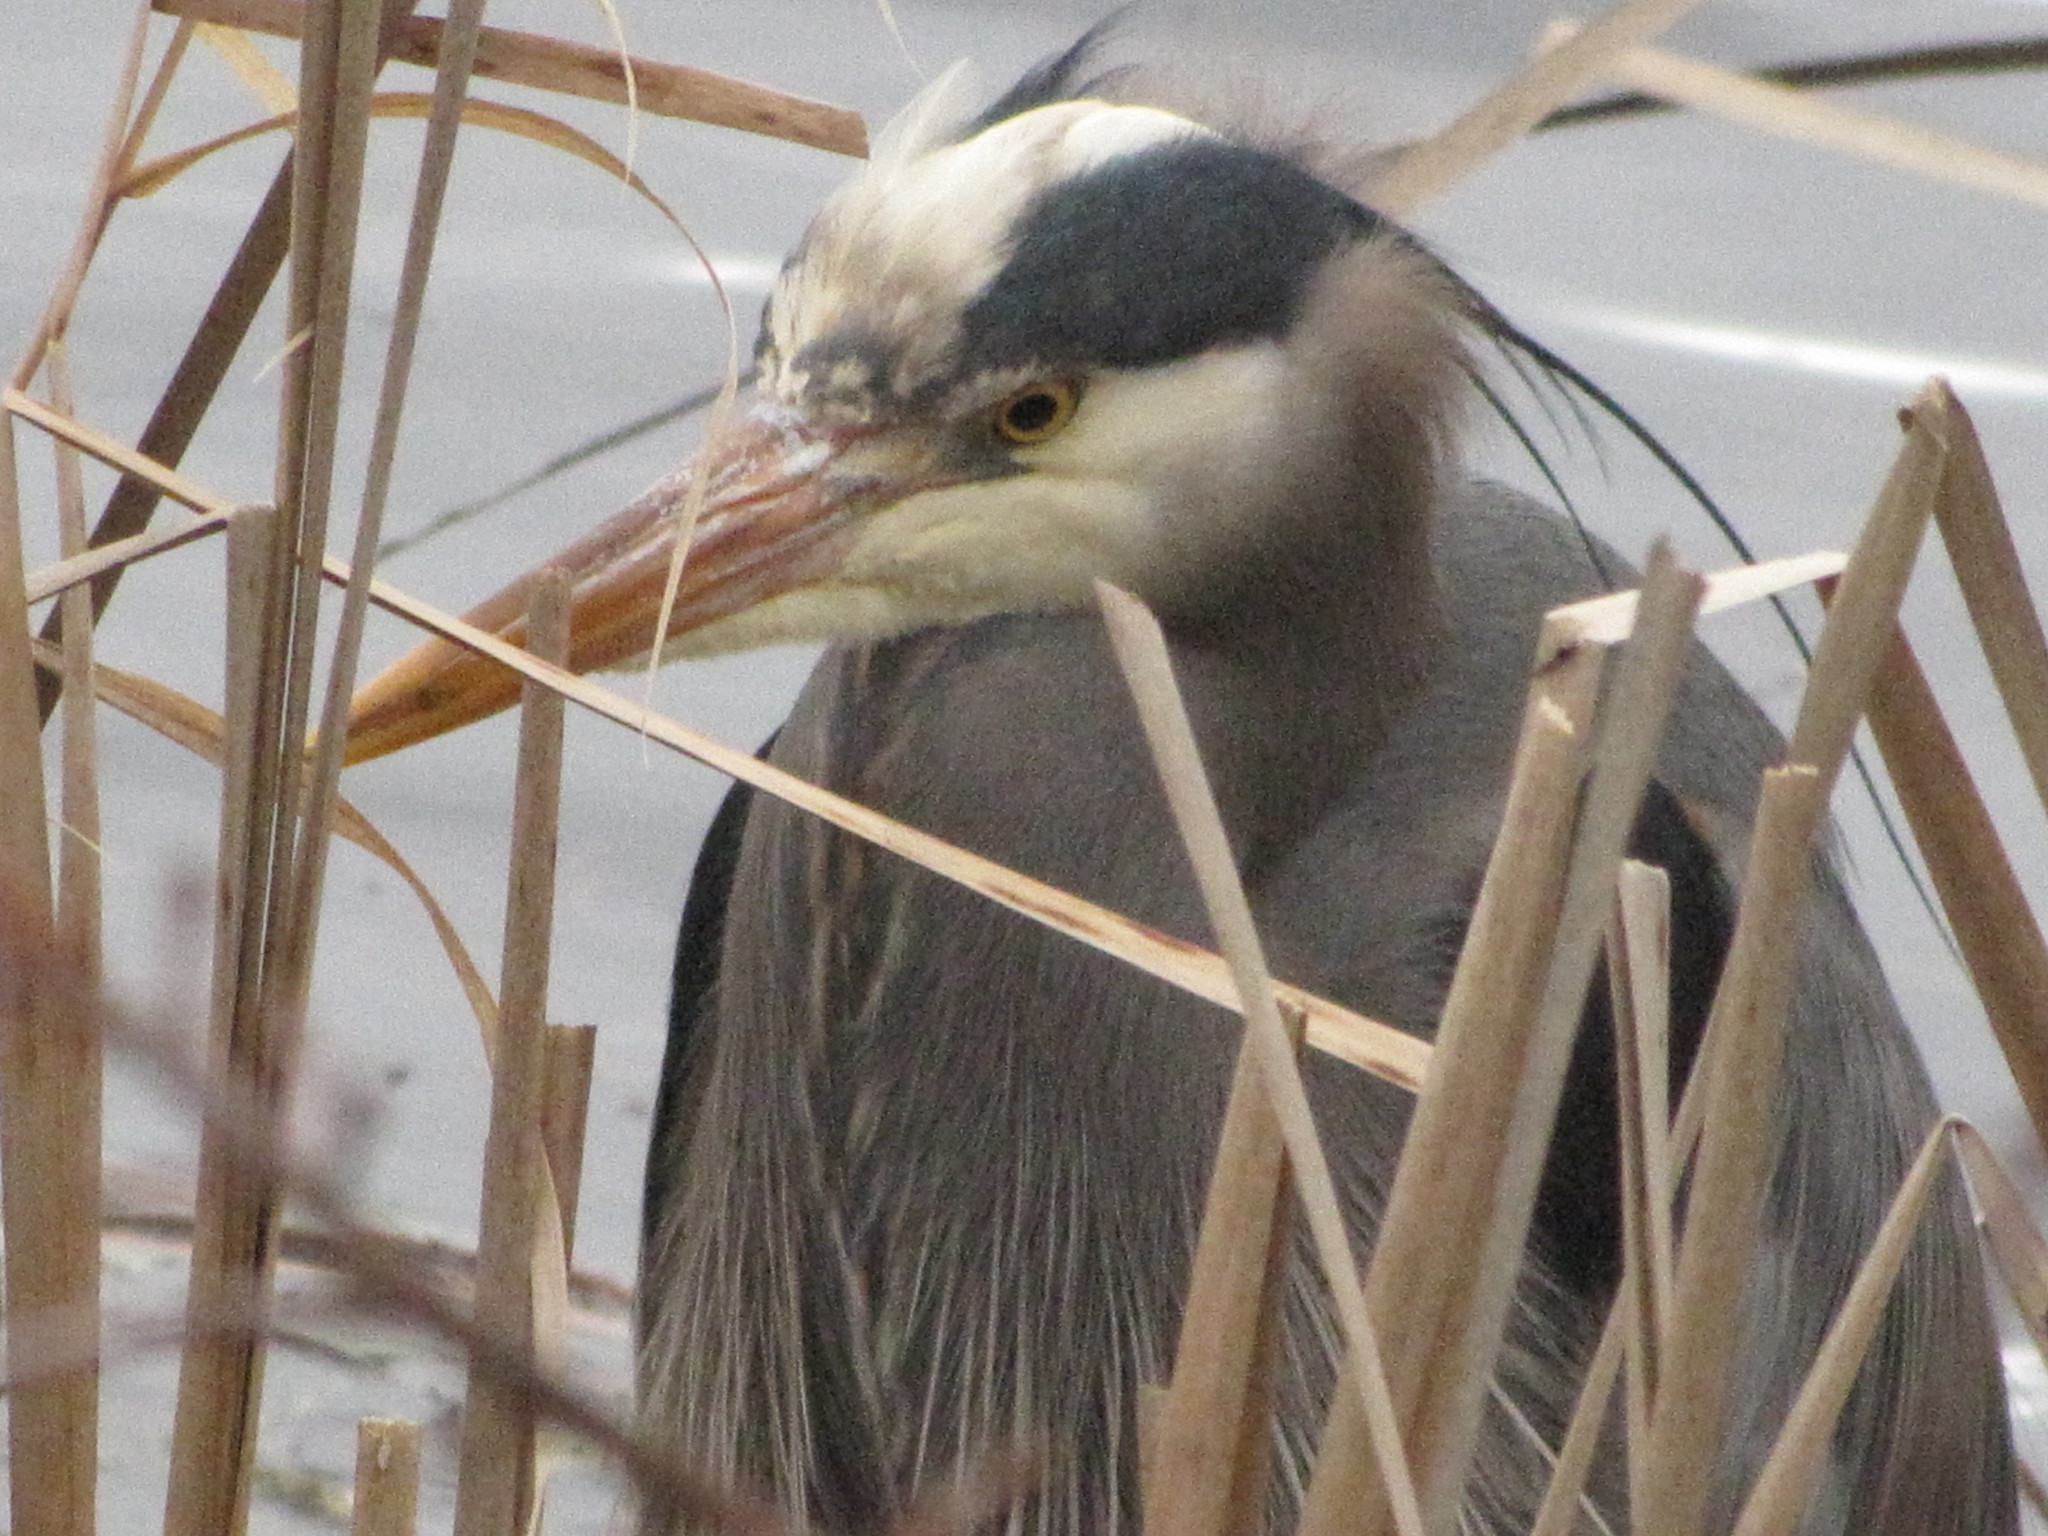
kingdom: Animalia
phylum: Chordata
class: Aves
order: Pelecaniformes
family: Ardeidae
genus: Ardea
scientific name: Ardea herodias
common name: Great blue heron
